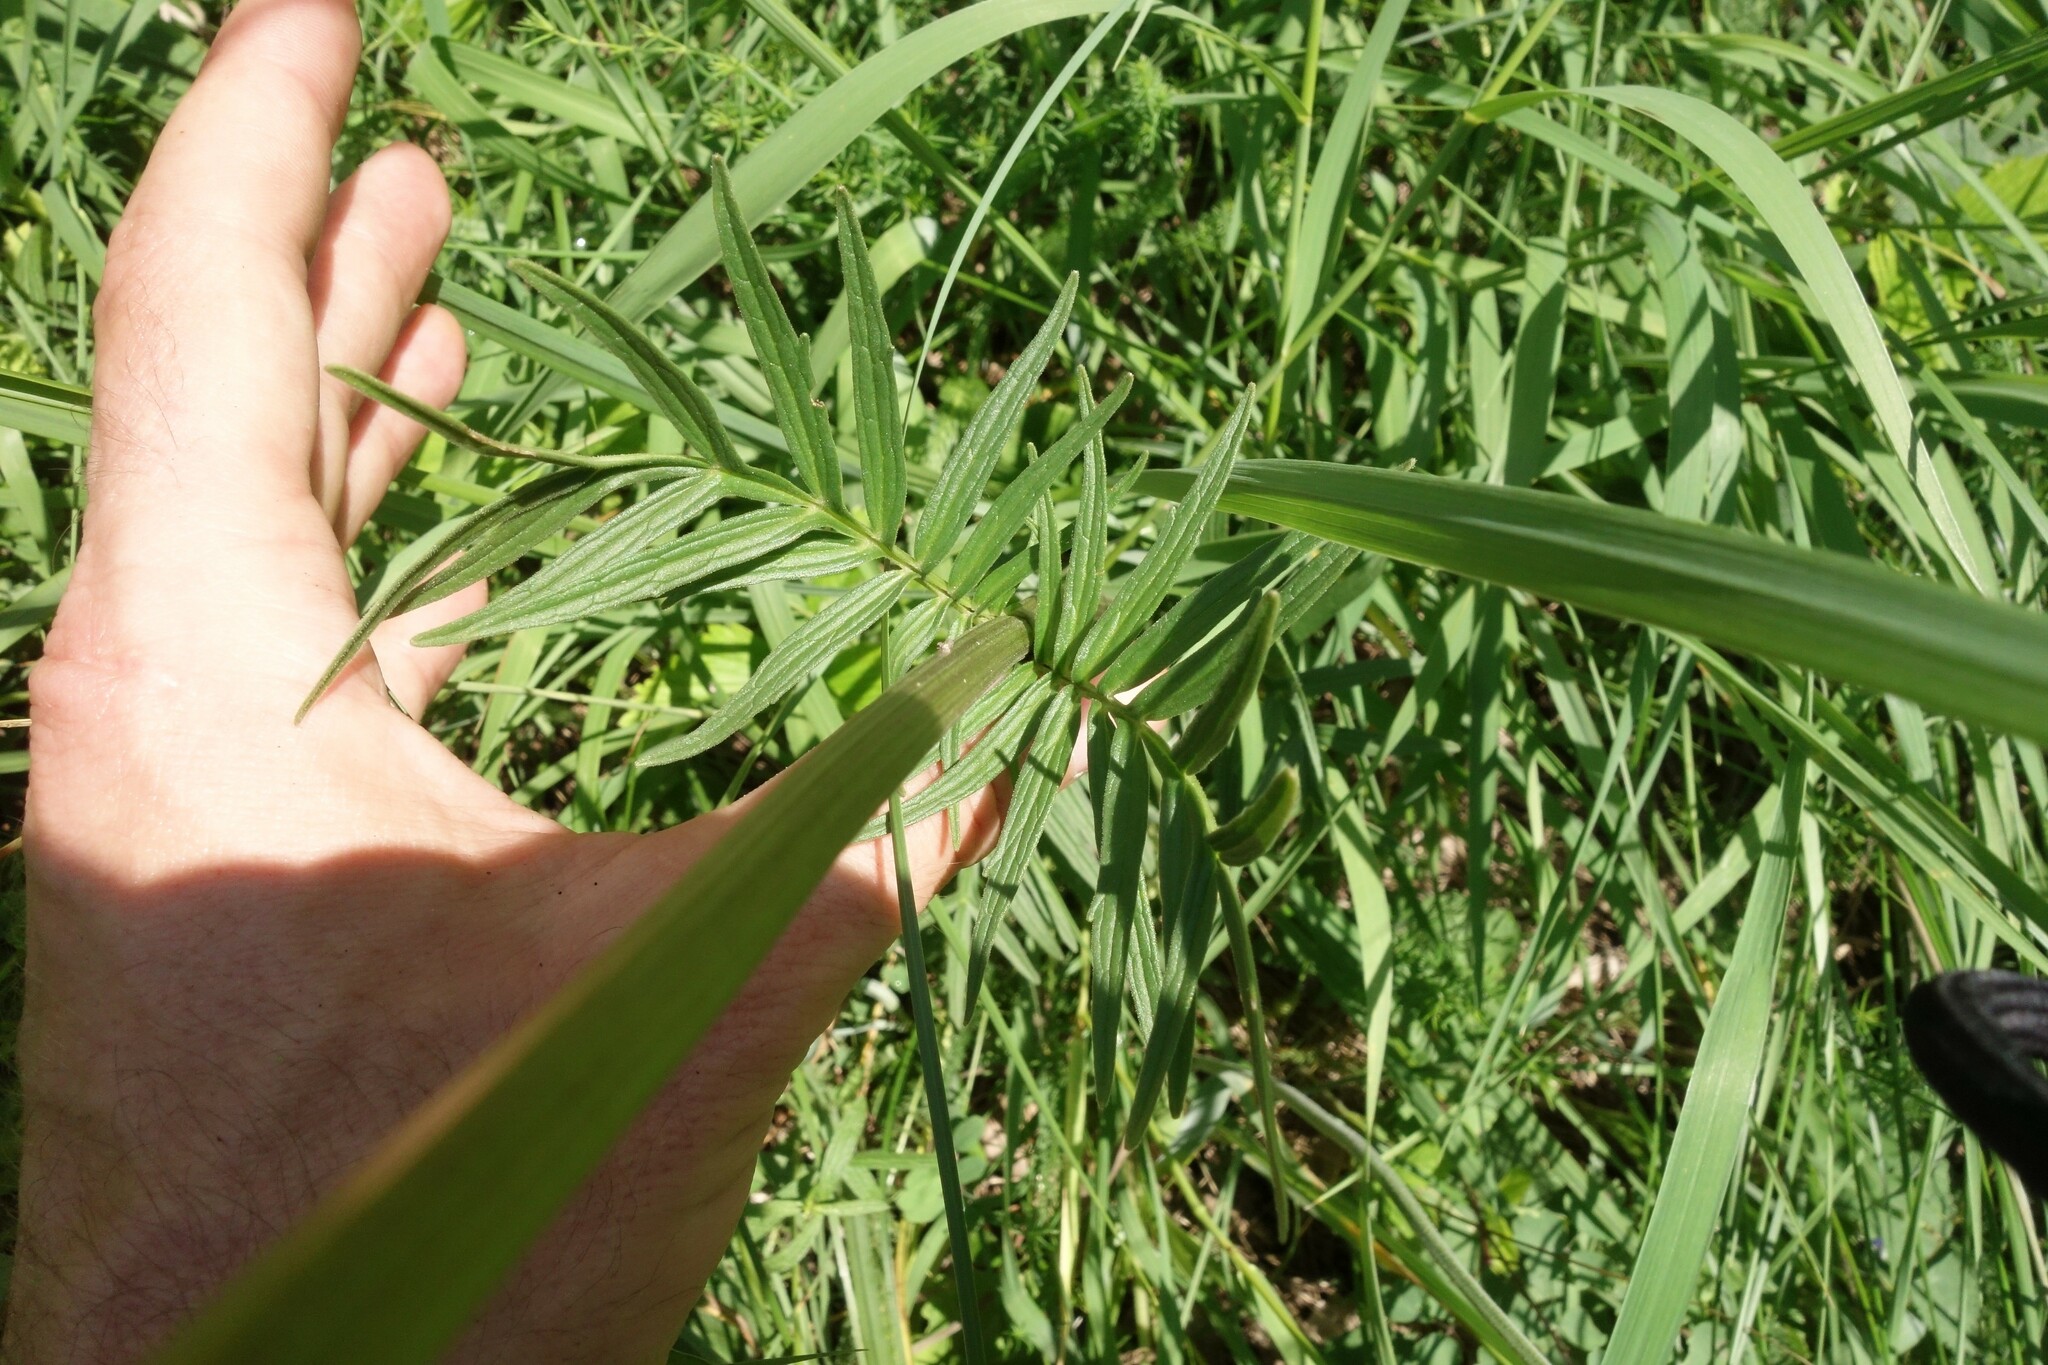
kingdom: Plantae
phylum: Tracheophyta
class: Magnoliopsida
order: Dipsacales
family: Caprifoliaceae
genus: Valeriana
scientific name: Valeriana rossica
